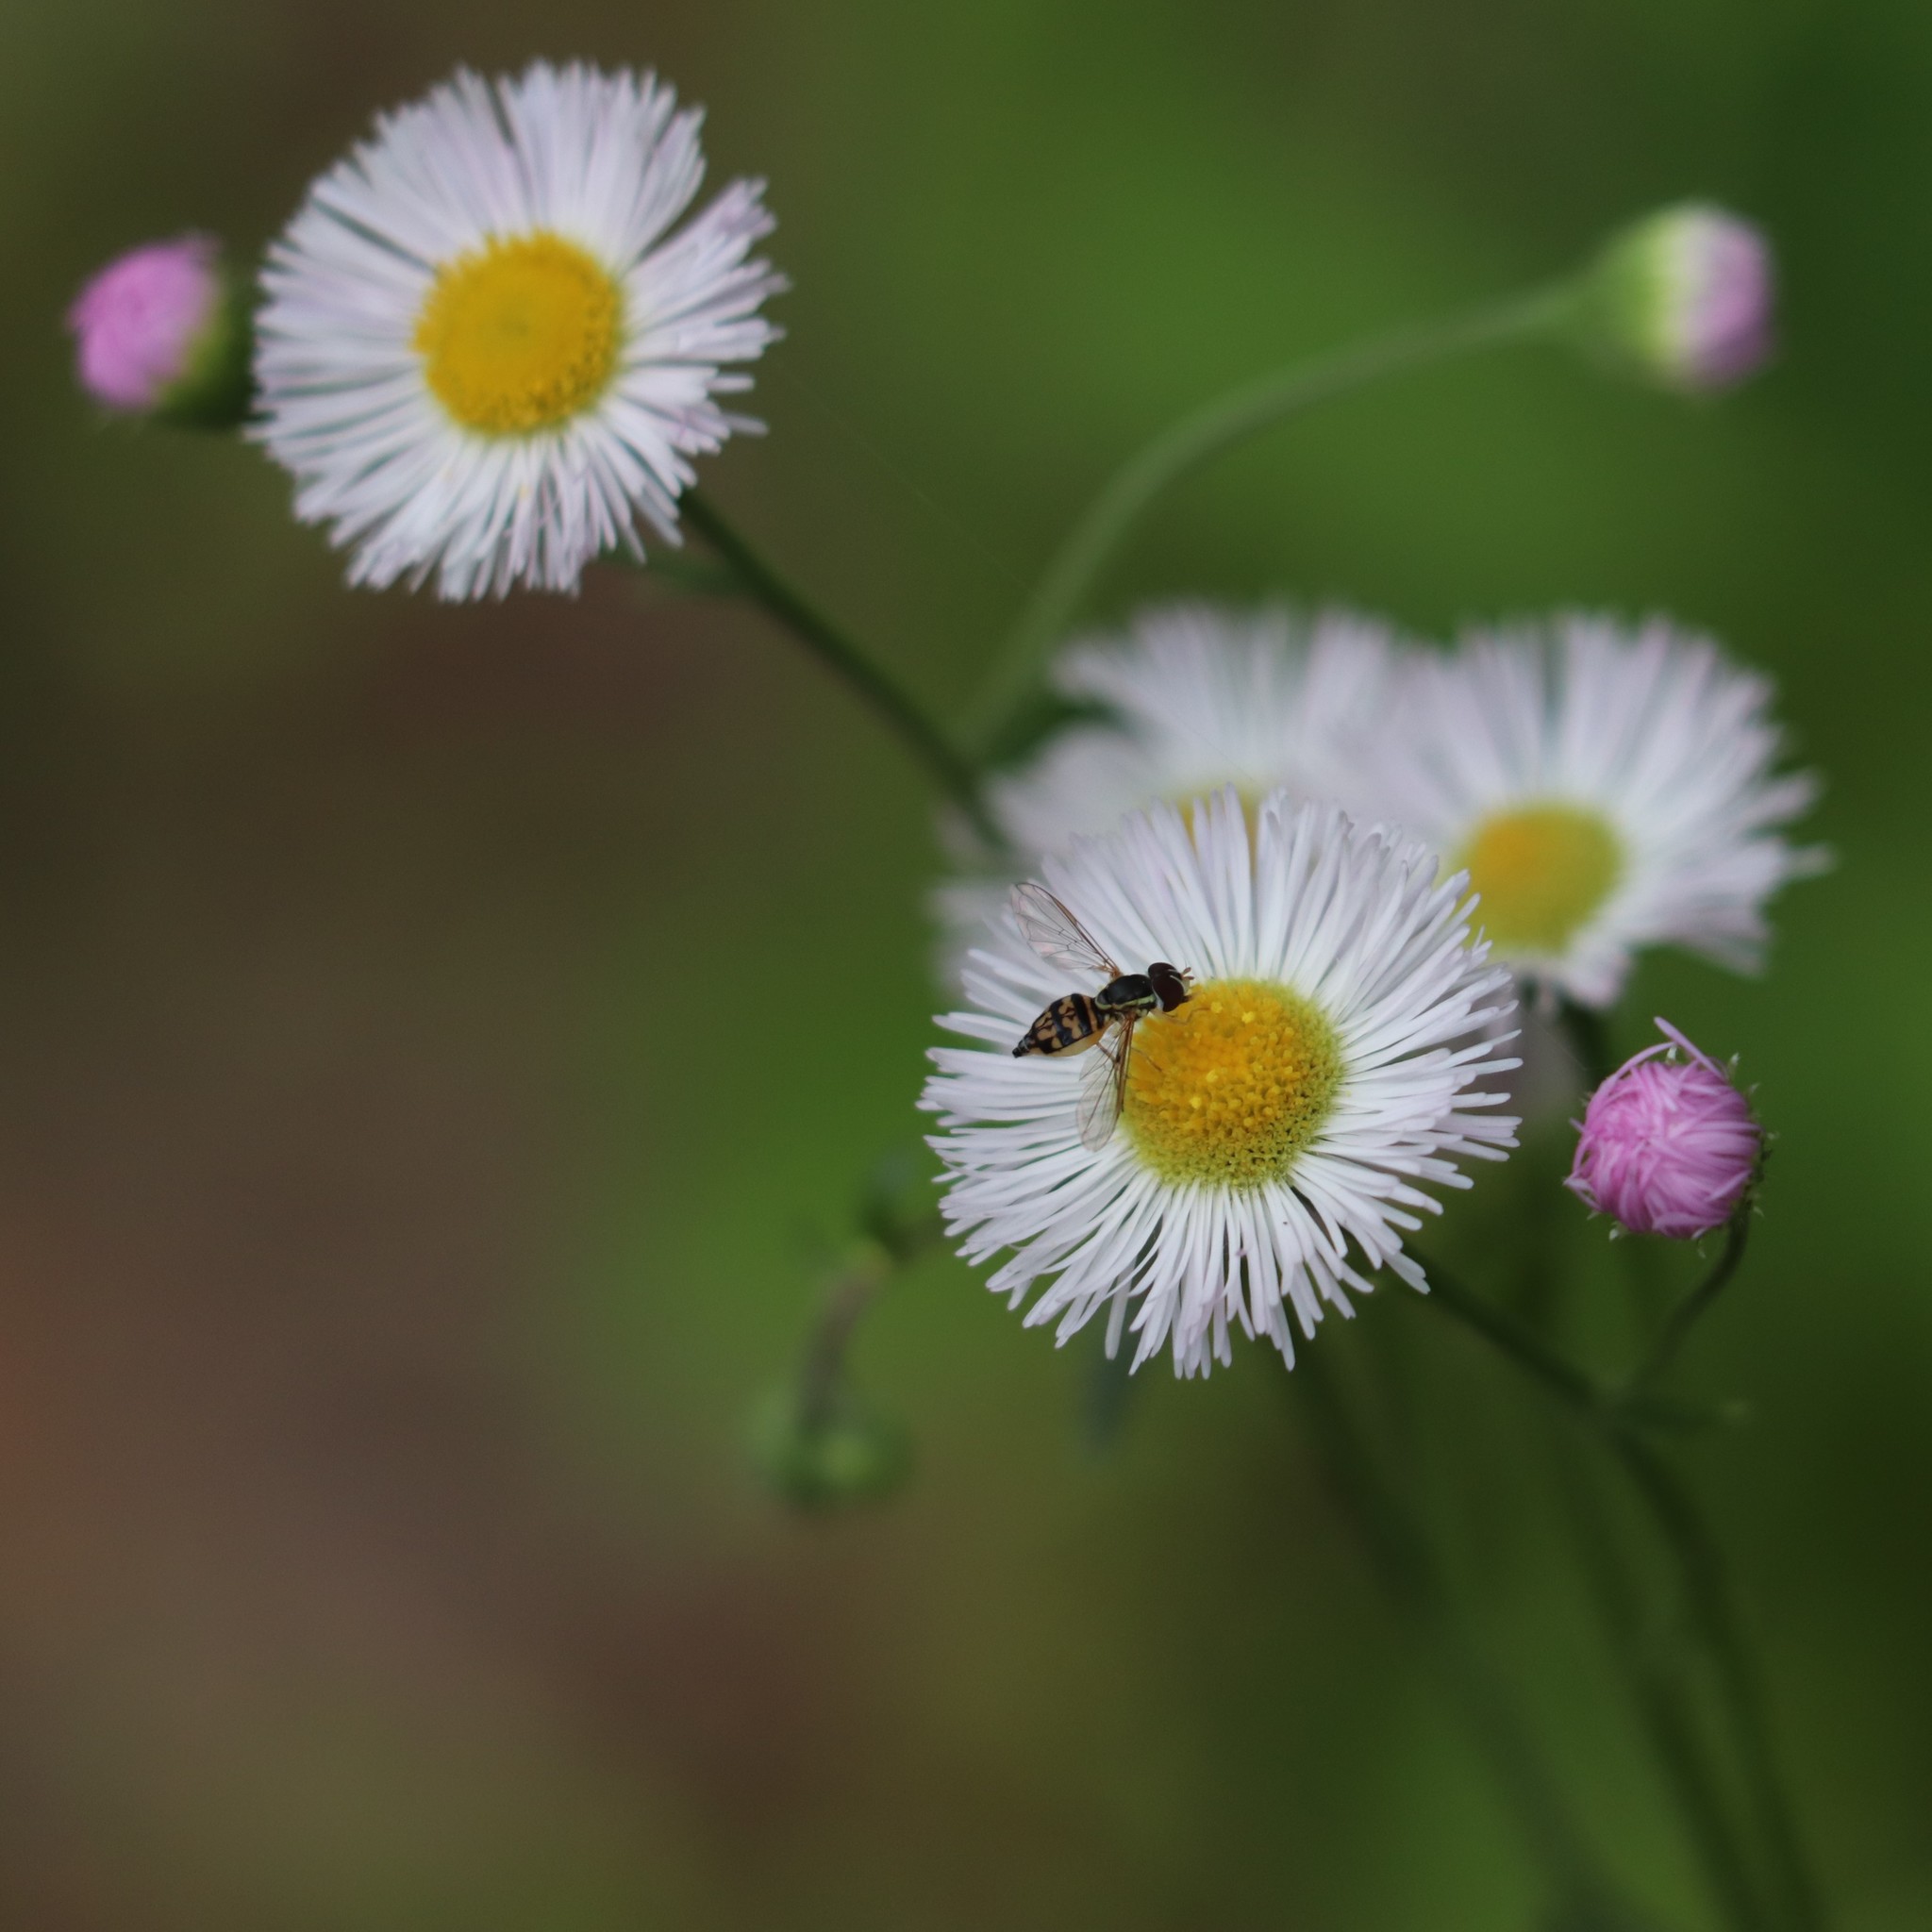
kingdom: Plantae
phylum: Tracheophyta
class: Magnoliopsida
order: Asterales
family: Asteraceae
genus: Erigeron
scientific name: Erigeron philadelphicus
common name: Robin's-plantain
